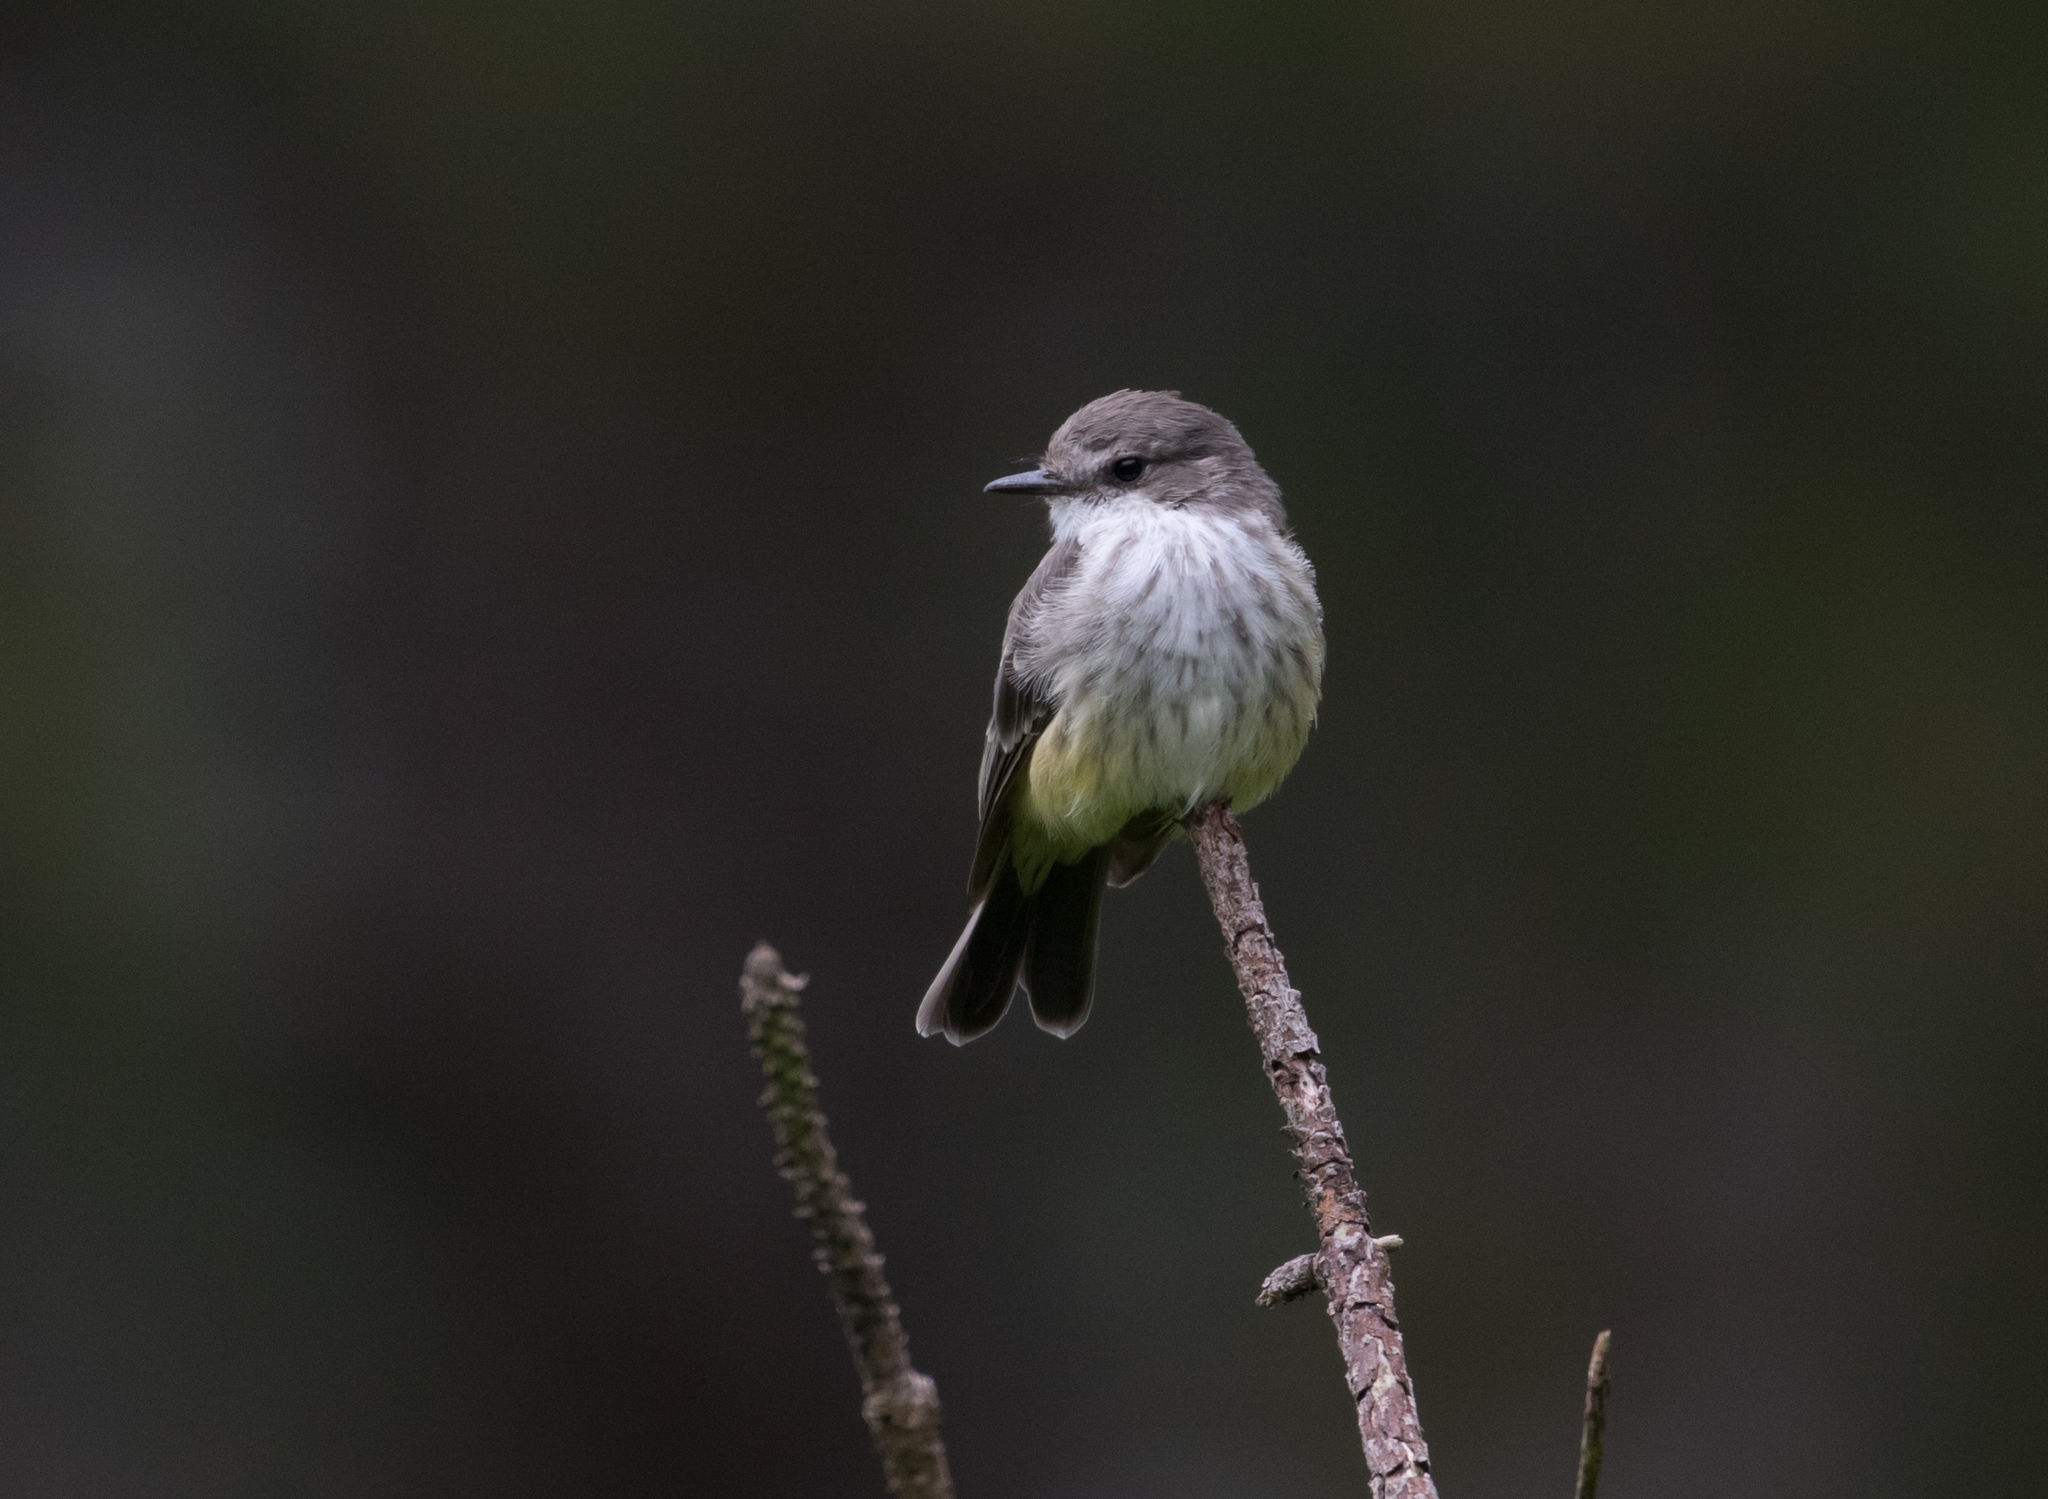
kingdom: Animalia
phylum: Chordata
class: Aves
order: Passeriformes
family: Tyrannidae
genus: Pyrocephalus
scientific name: Pyrocephalus rubinus
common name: Vermilion flycatcher
